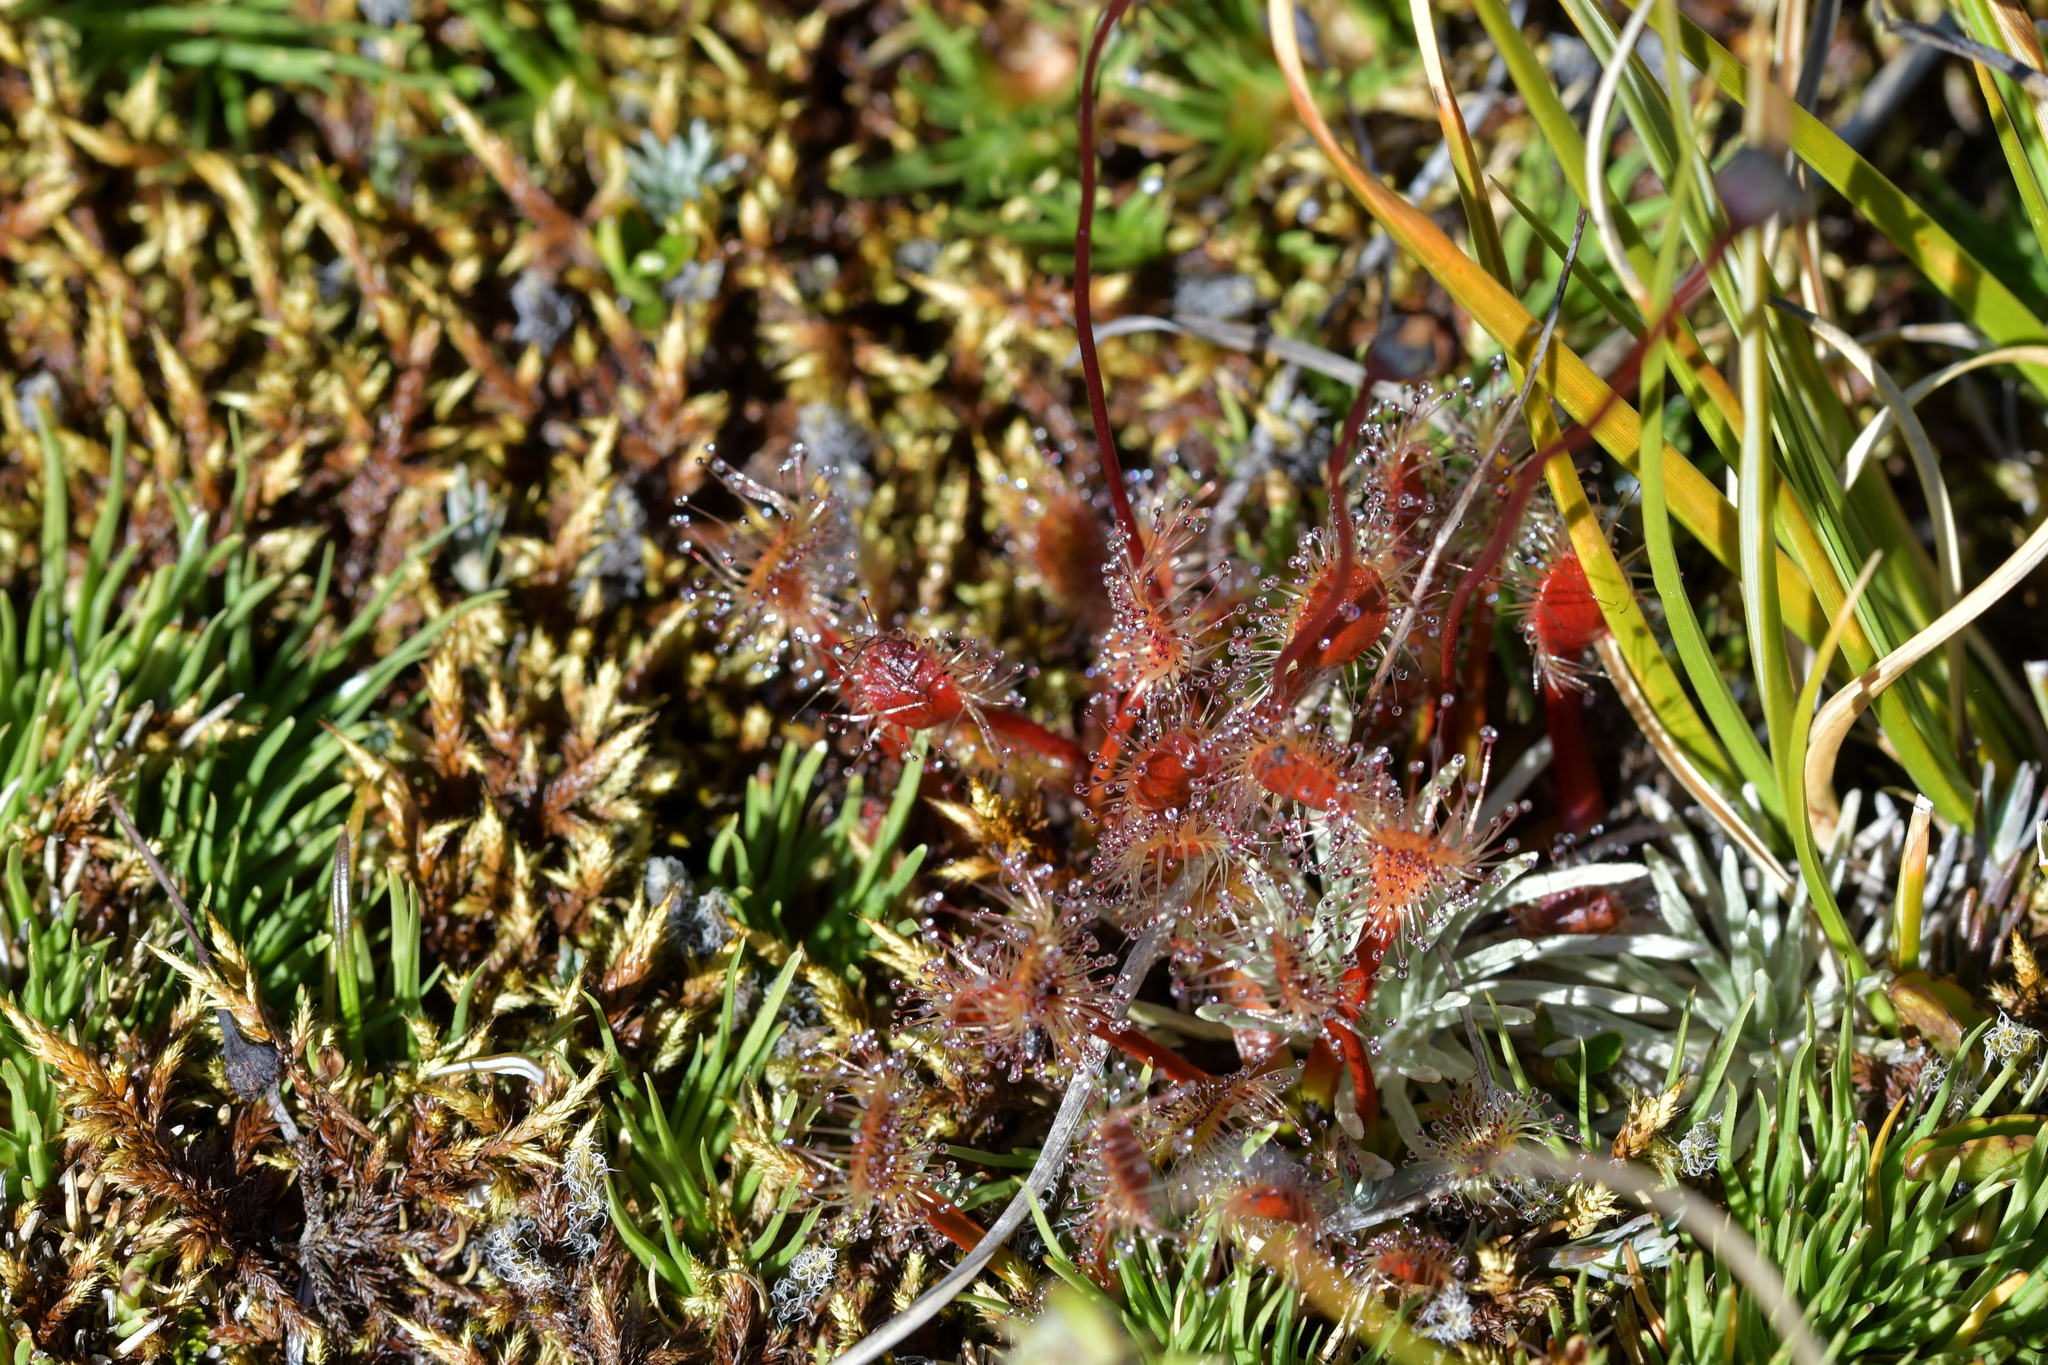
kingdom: Plantae
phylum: Tracheophyta
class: Magnoliopsida
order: Caryophyllales
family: Droseraceae
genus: Drosera
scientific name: Drosera stenopetala
